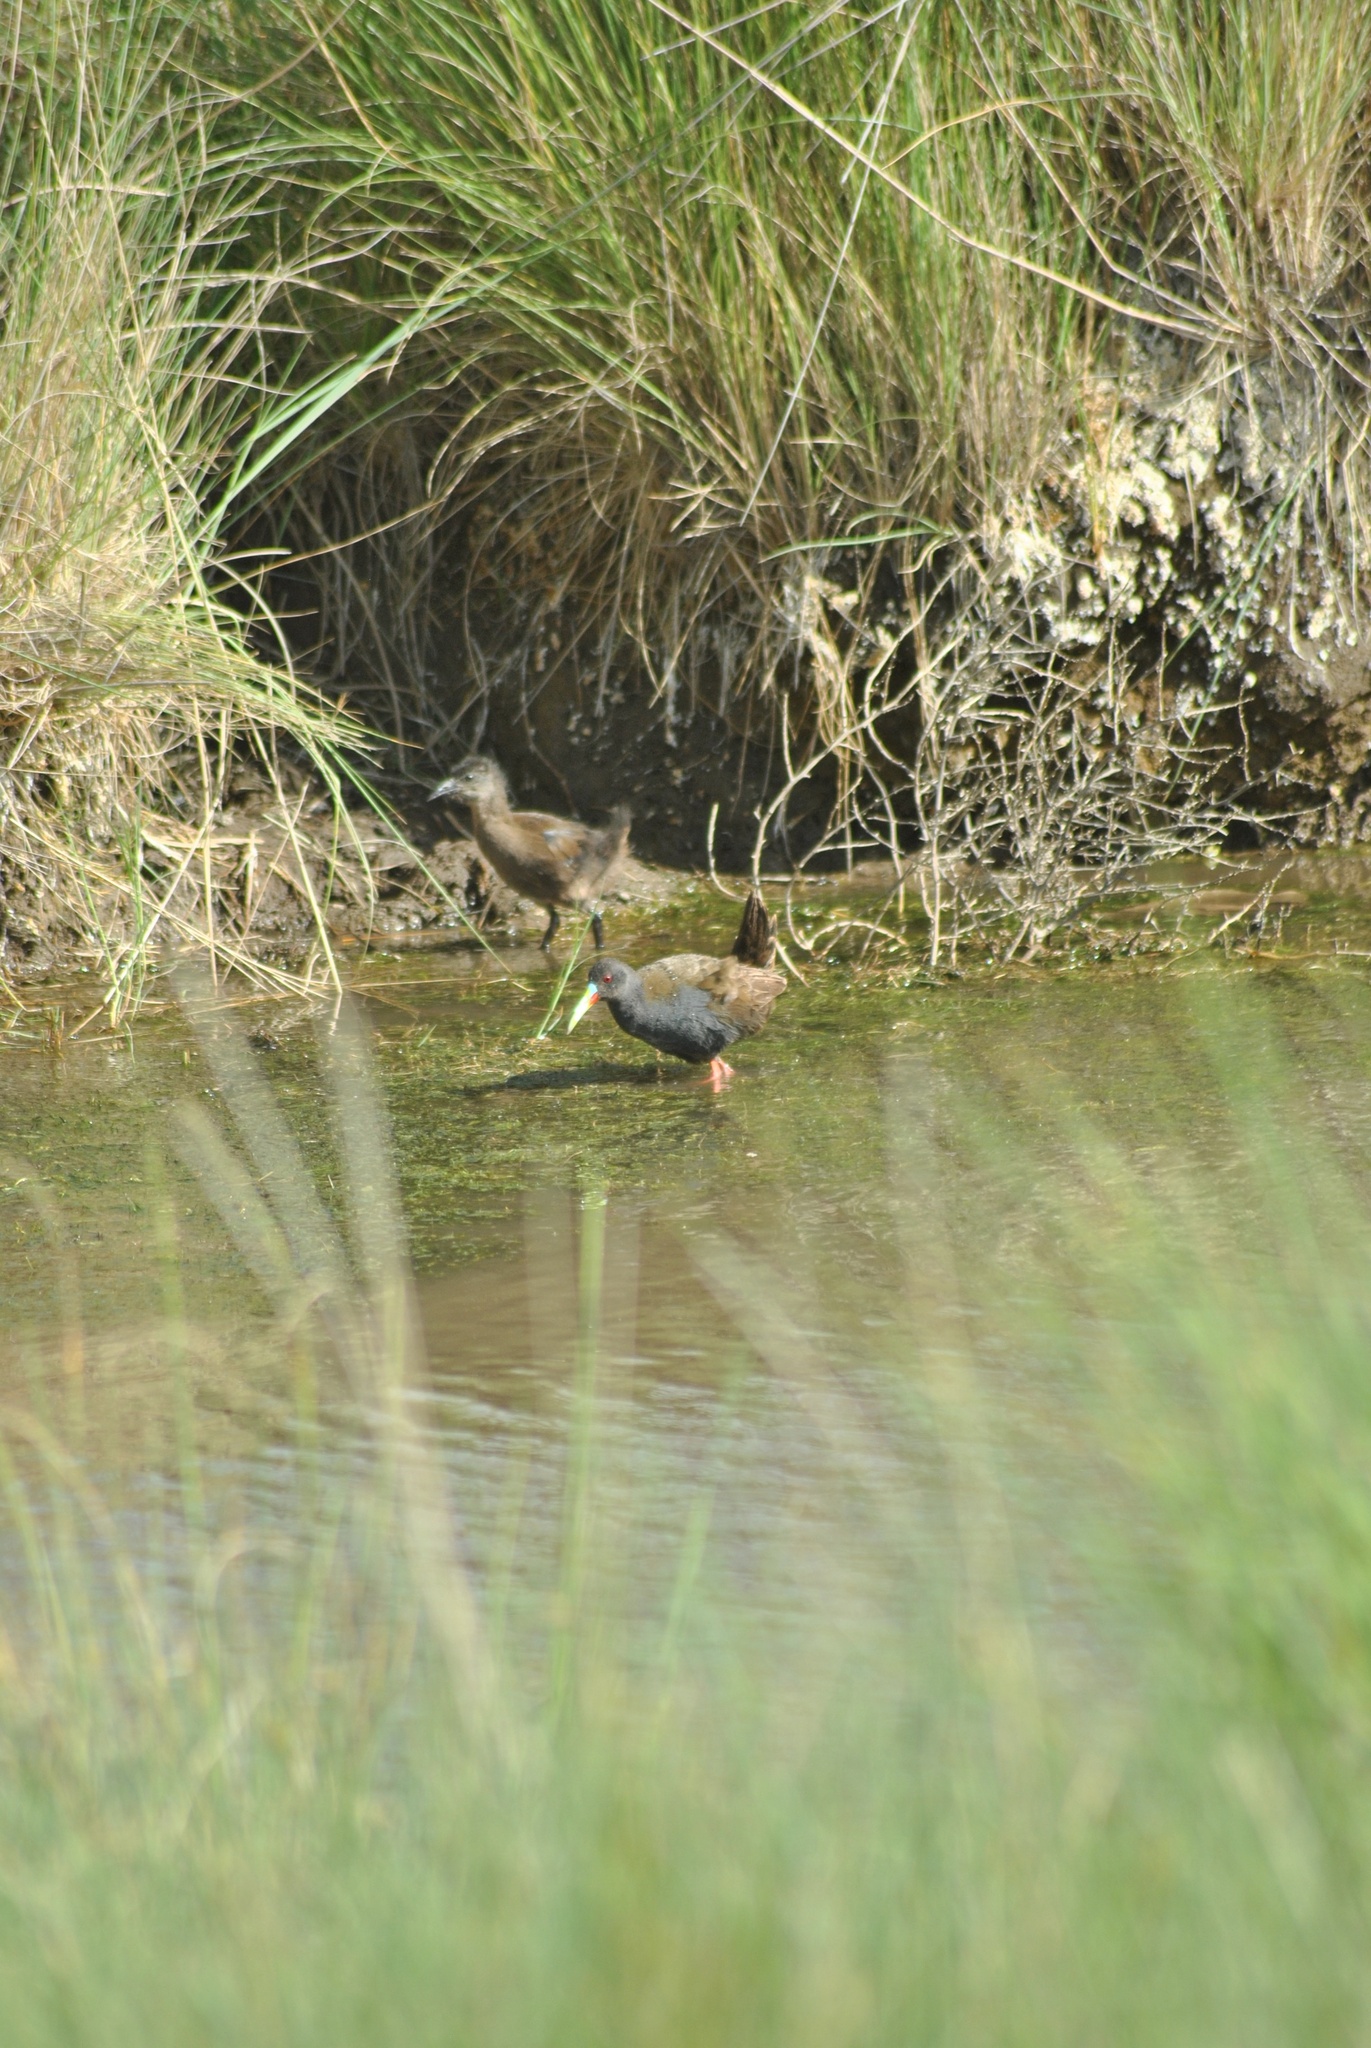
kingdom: Animalia
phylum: Chordata
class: Aves
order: Gruiformes
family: Rallidae
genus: Pardirallus
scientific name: Pardirallus sanguinolentus
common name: Plumbeous rail
